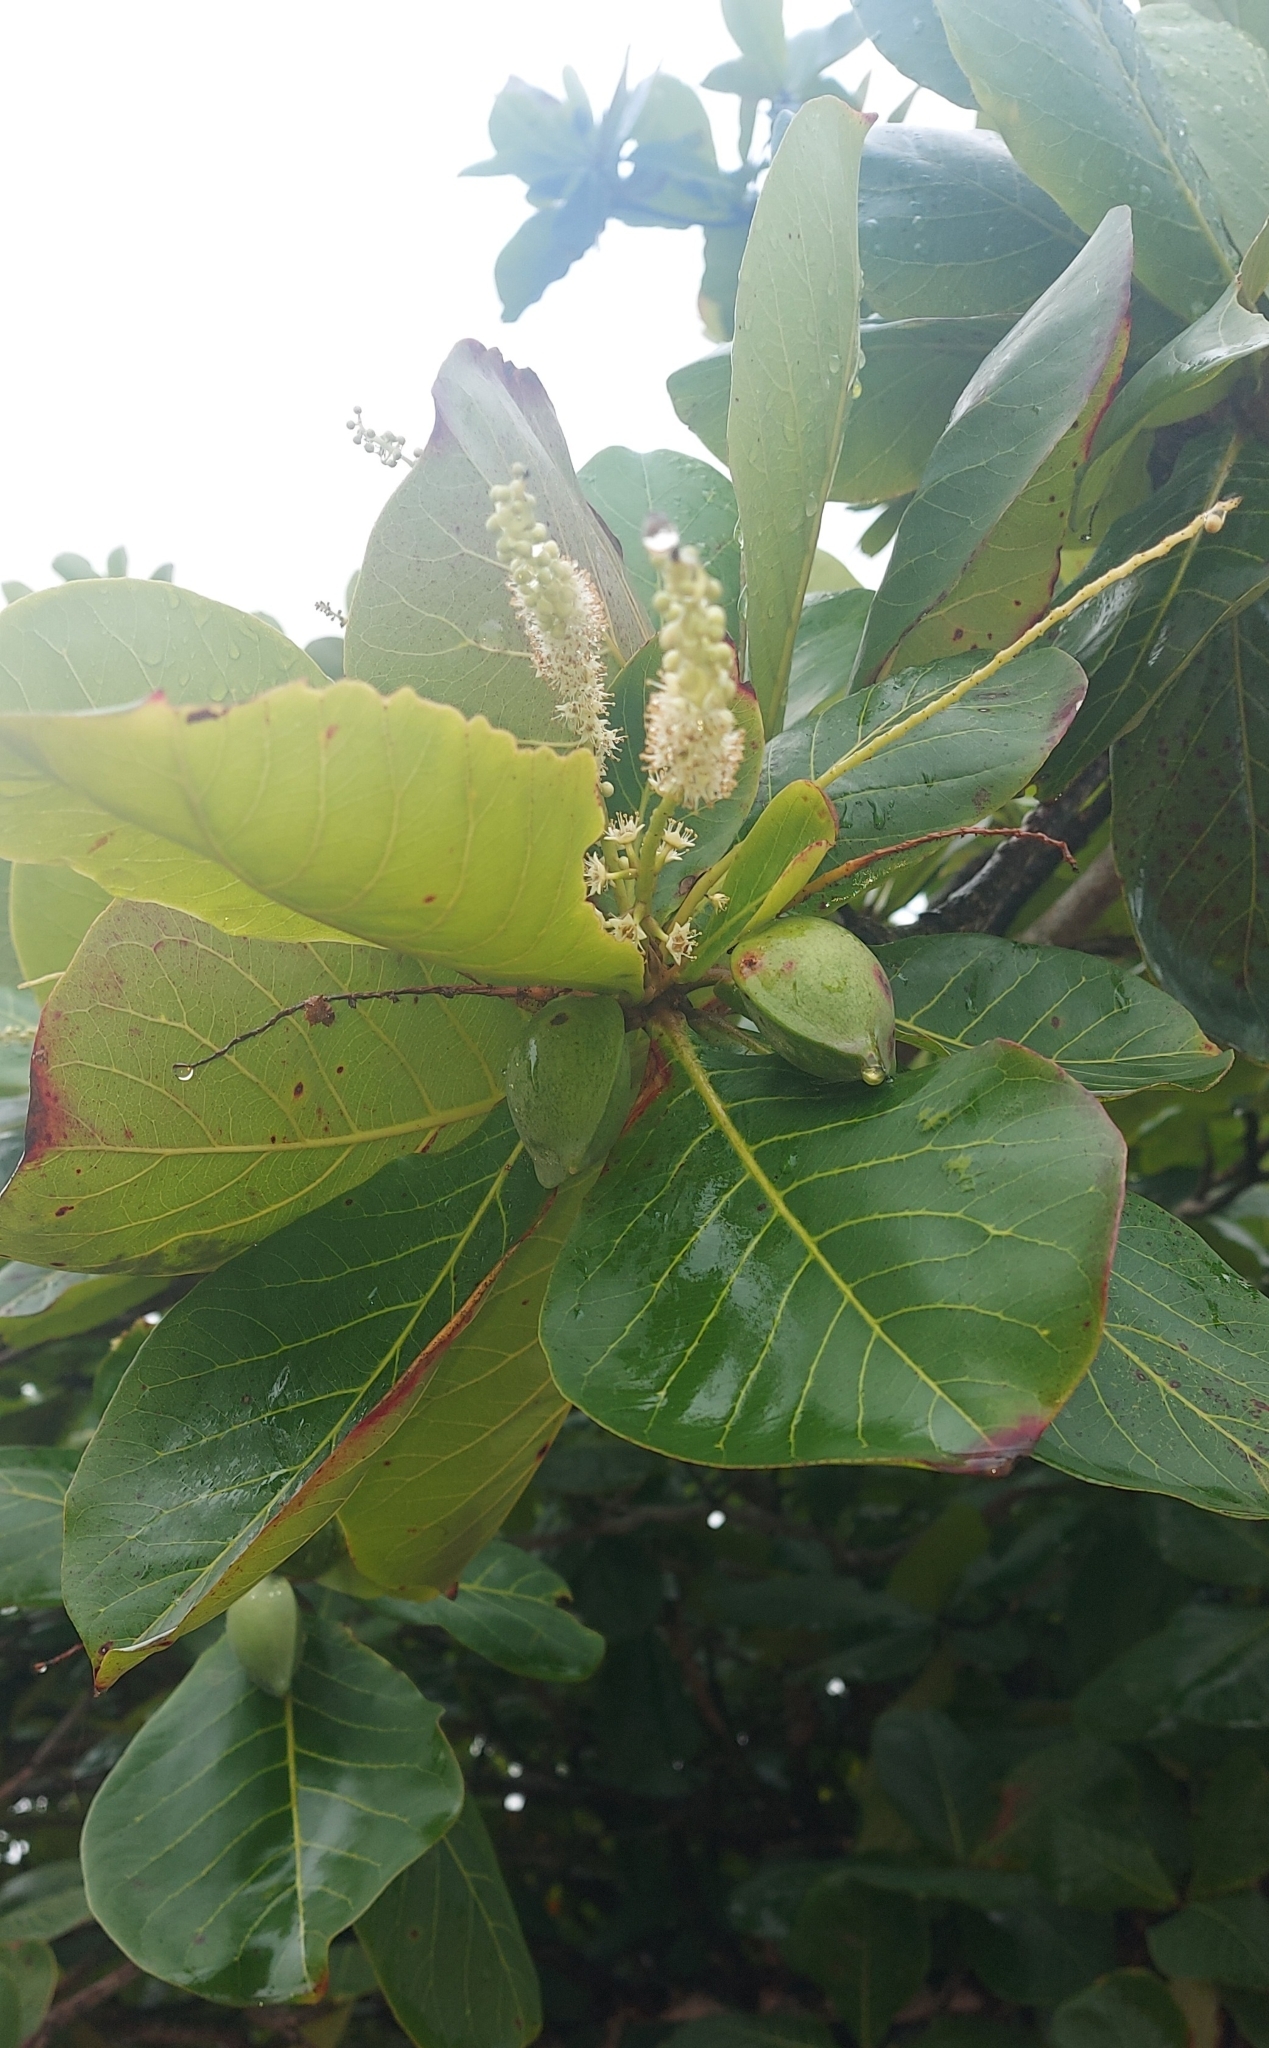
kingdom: Plantae
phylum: Tracheophyta
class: Magnoliopsida
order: Myrtales
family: Combretaceae
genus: Terminalia
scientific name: Terminalia catappa
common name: Tropical almond
